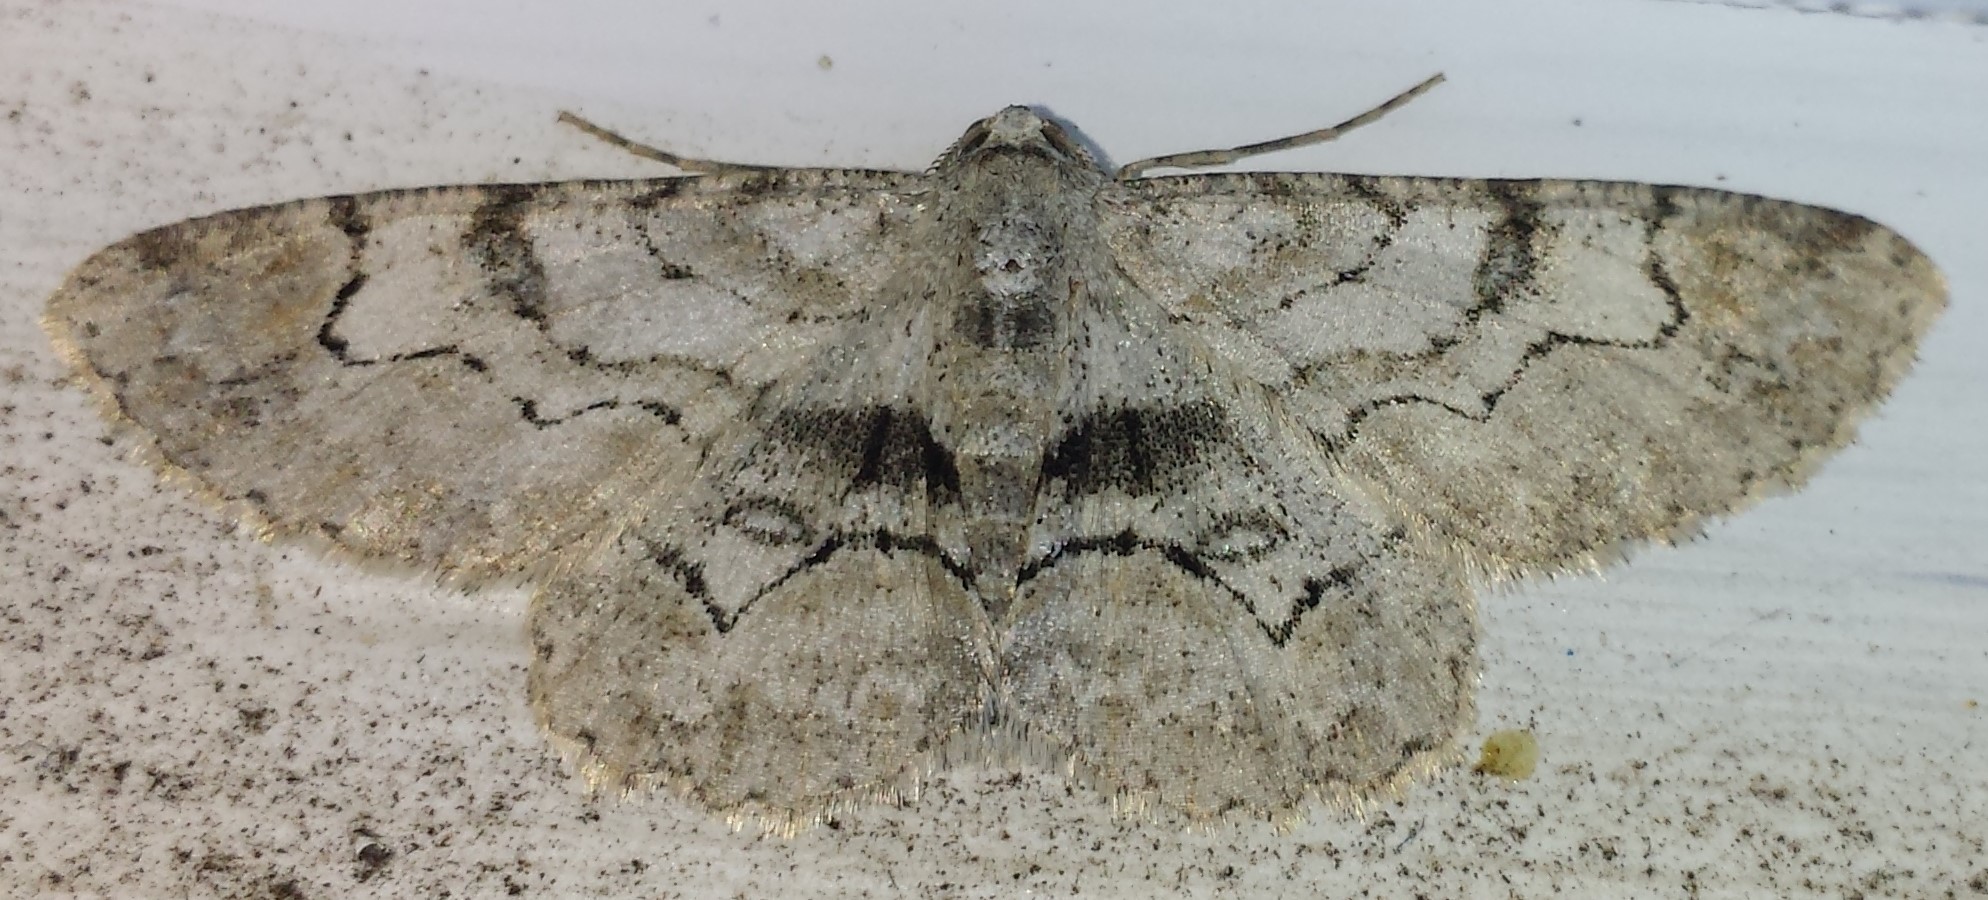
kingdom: Animalia
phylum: Arthropoda
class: Insecta
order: Lepidoptera
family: Geometridae
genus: Iridopsis
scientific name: Iridopsis larvaria
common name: Bent-line gray
